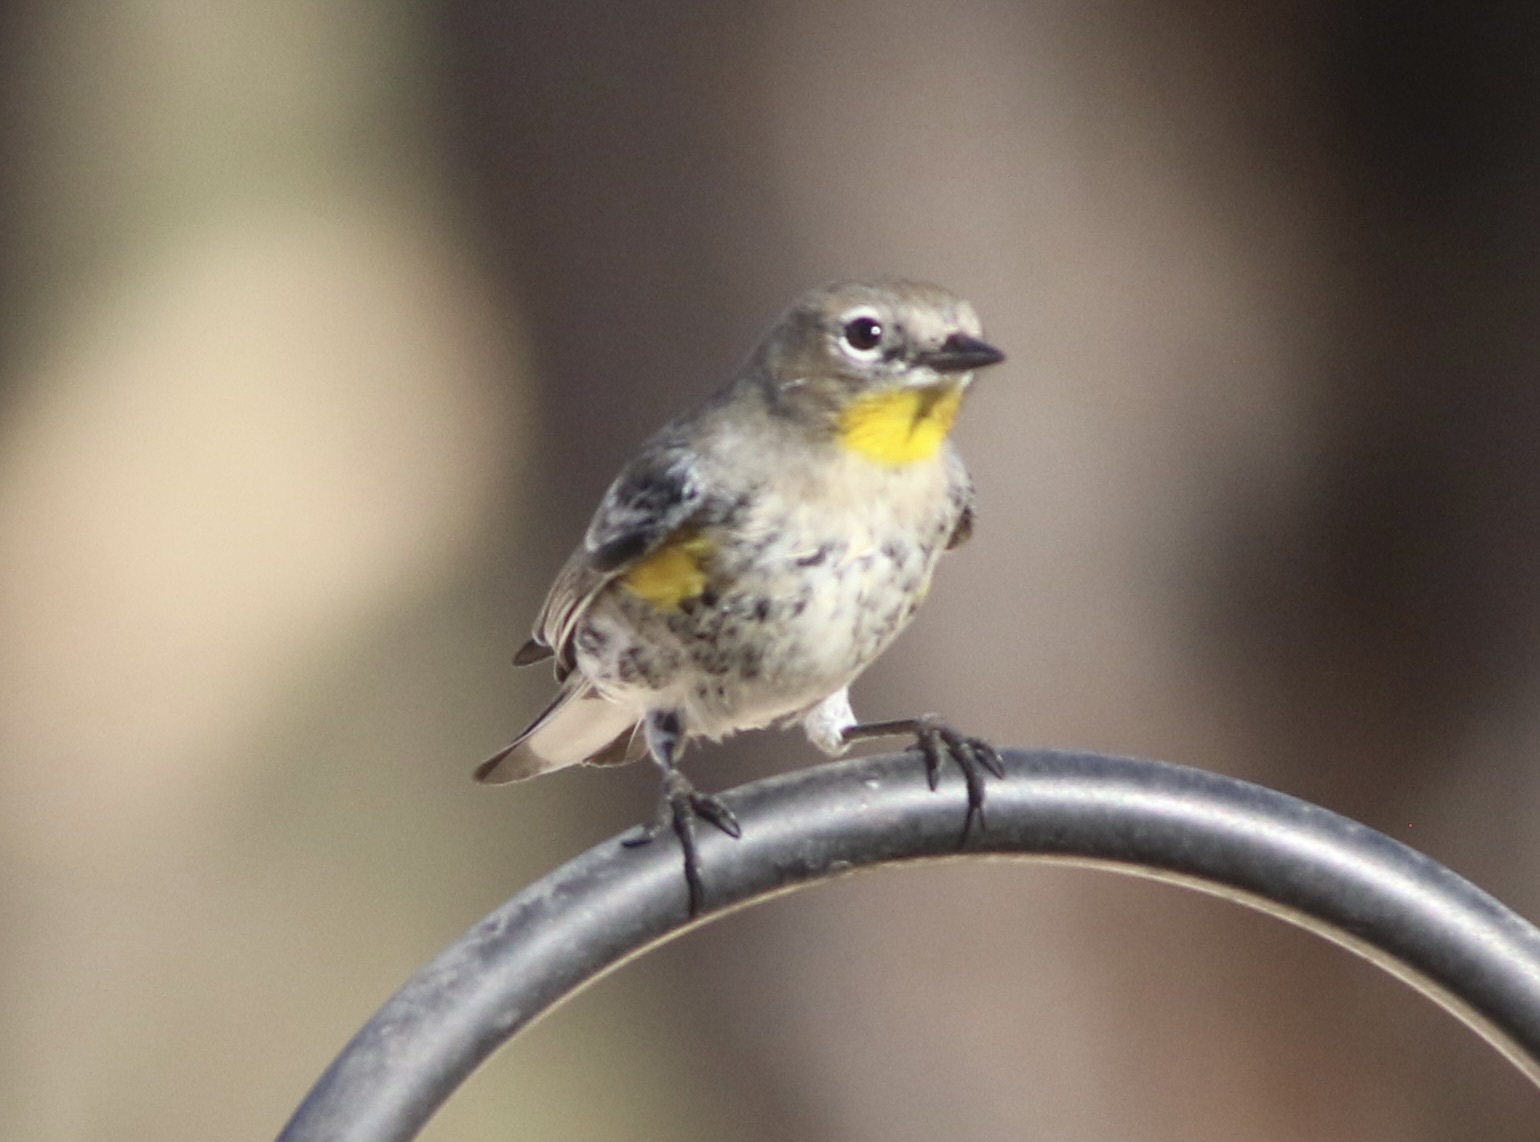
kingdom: Animalia
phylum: Chordata
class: Aves
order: Passeriformes
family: Parulidae
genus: Setophaga
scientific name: Setophaga coronata
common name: Myrtle warbler
